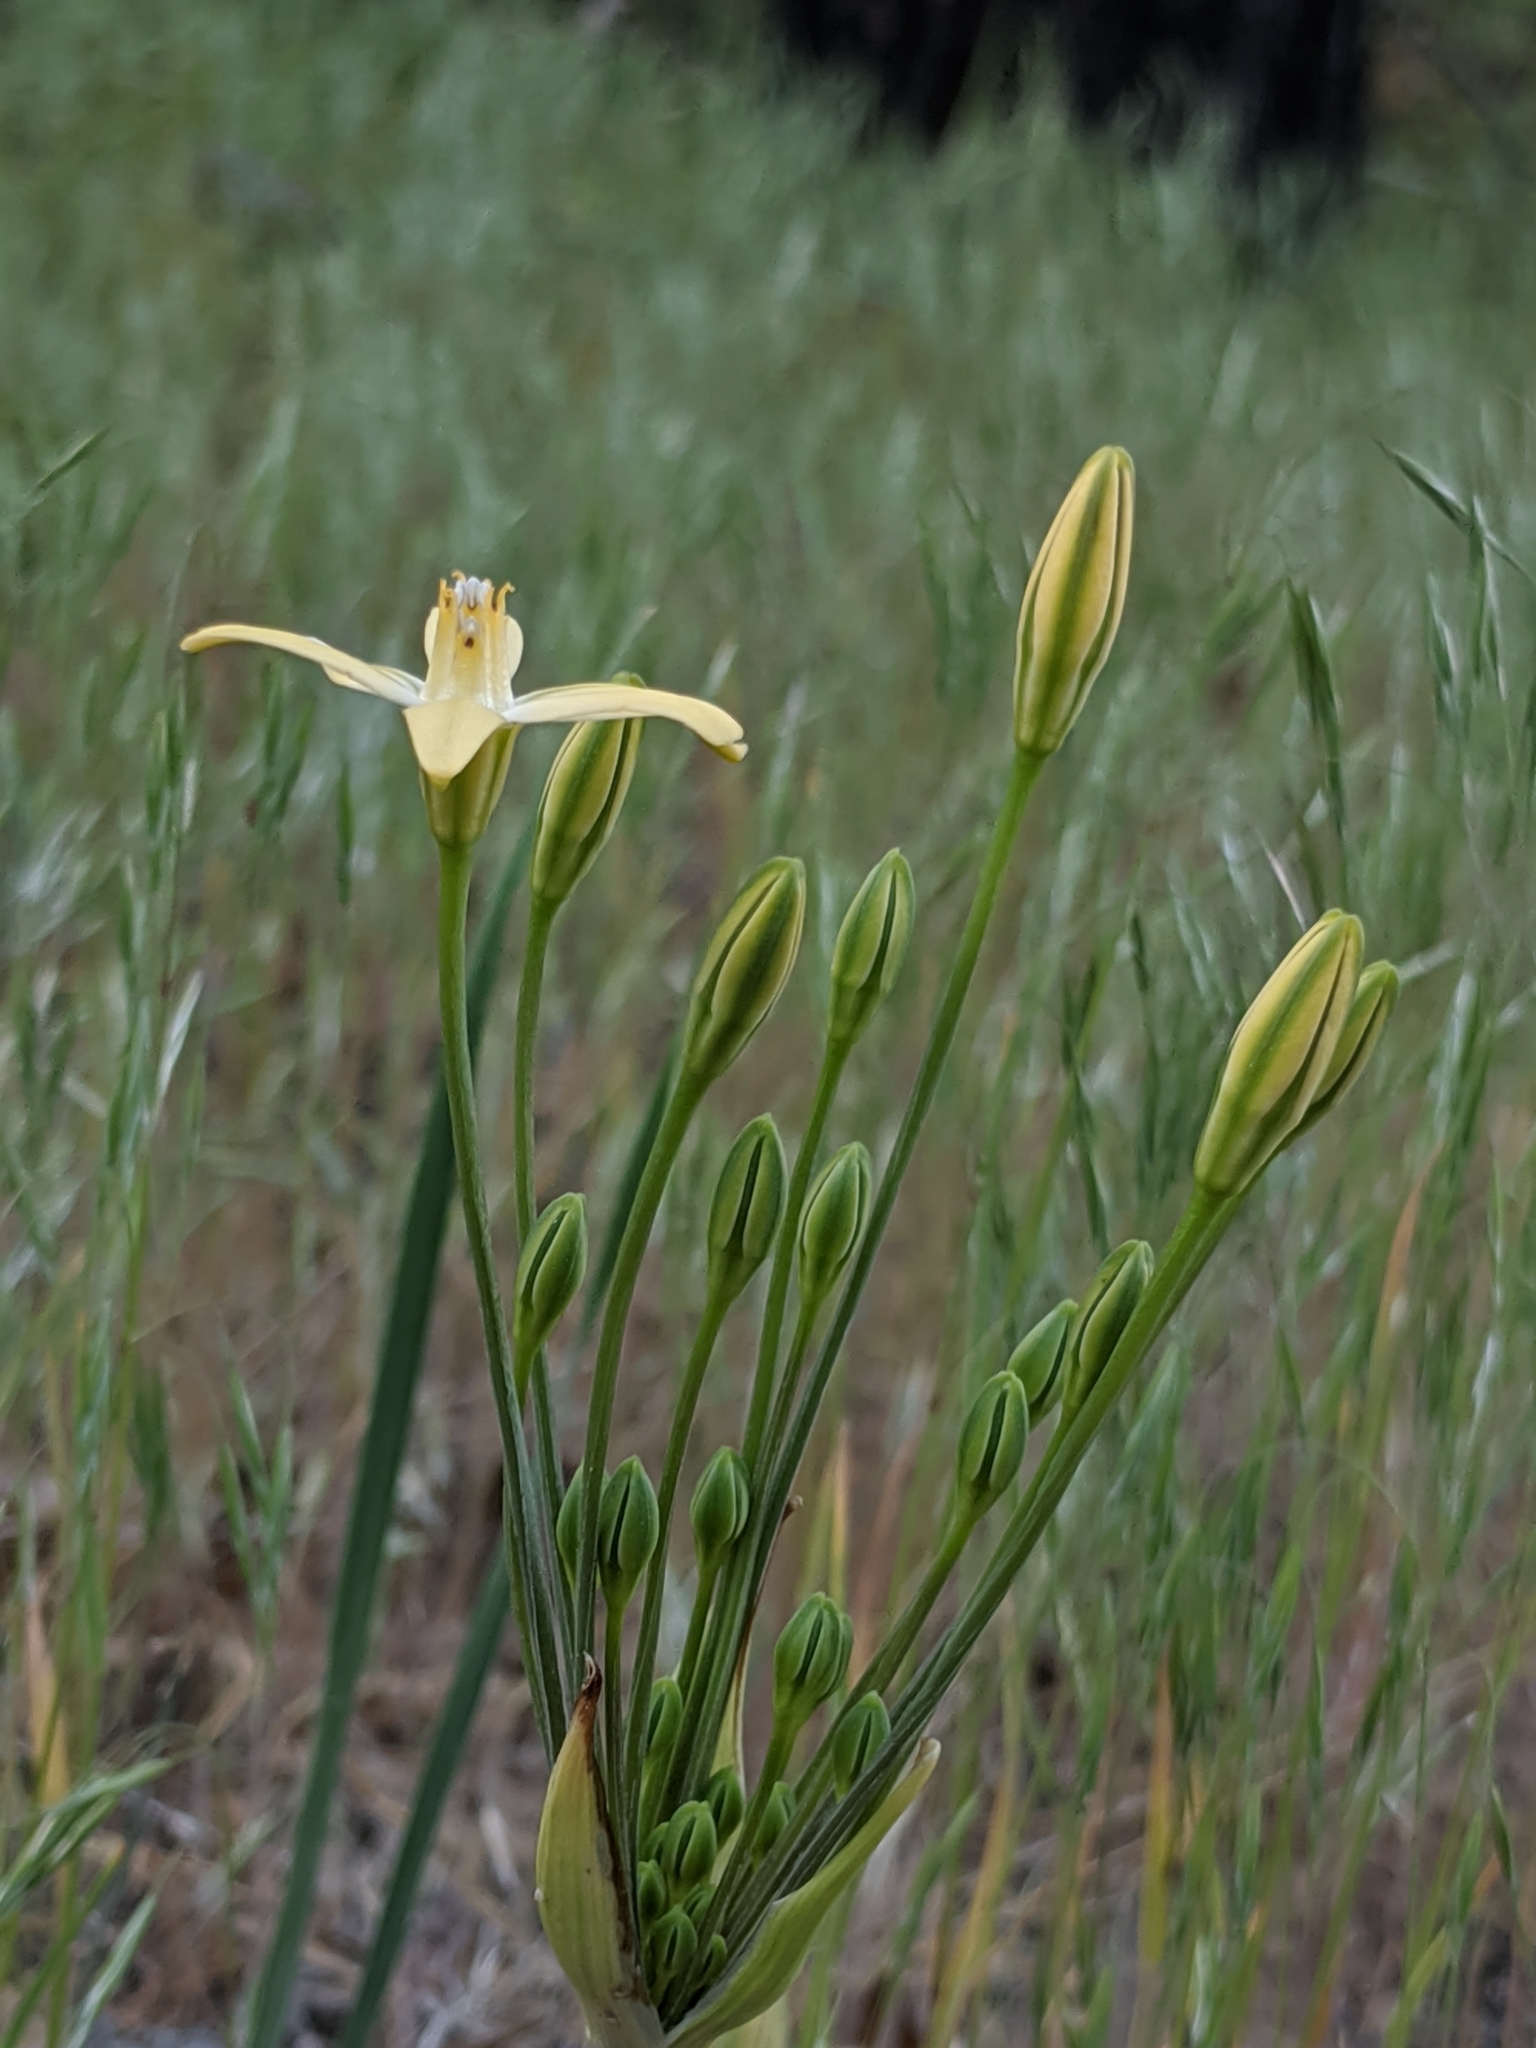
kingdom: Plantae
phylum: Tracheophyta
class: Liliopsida
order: Asparagales
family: Asparagaceae
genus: Triteleia
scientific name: Triteleia ixioides
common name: Yellow-brodiaea
